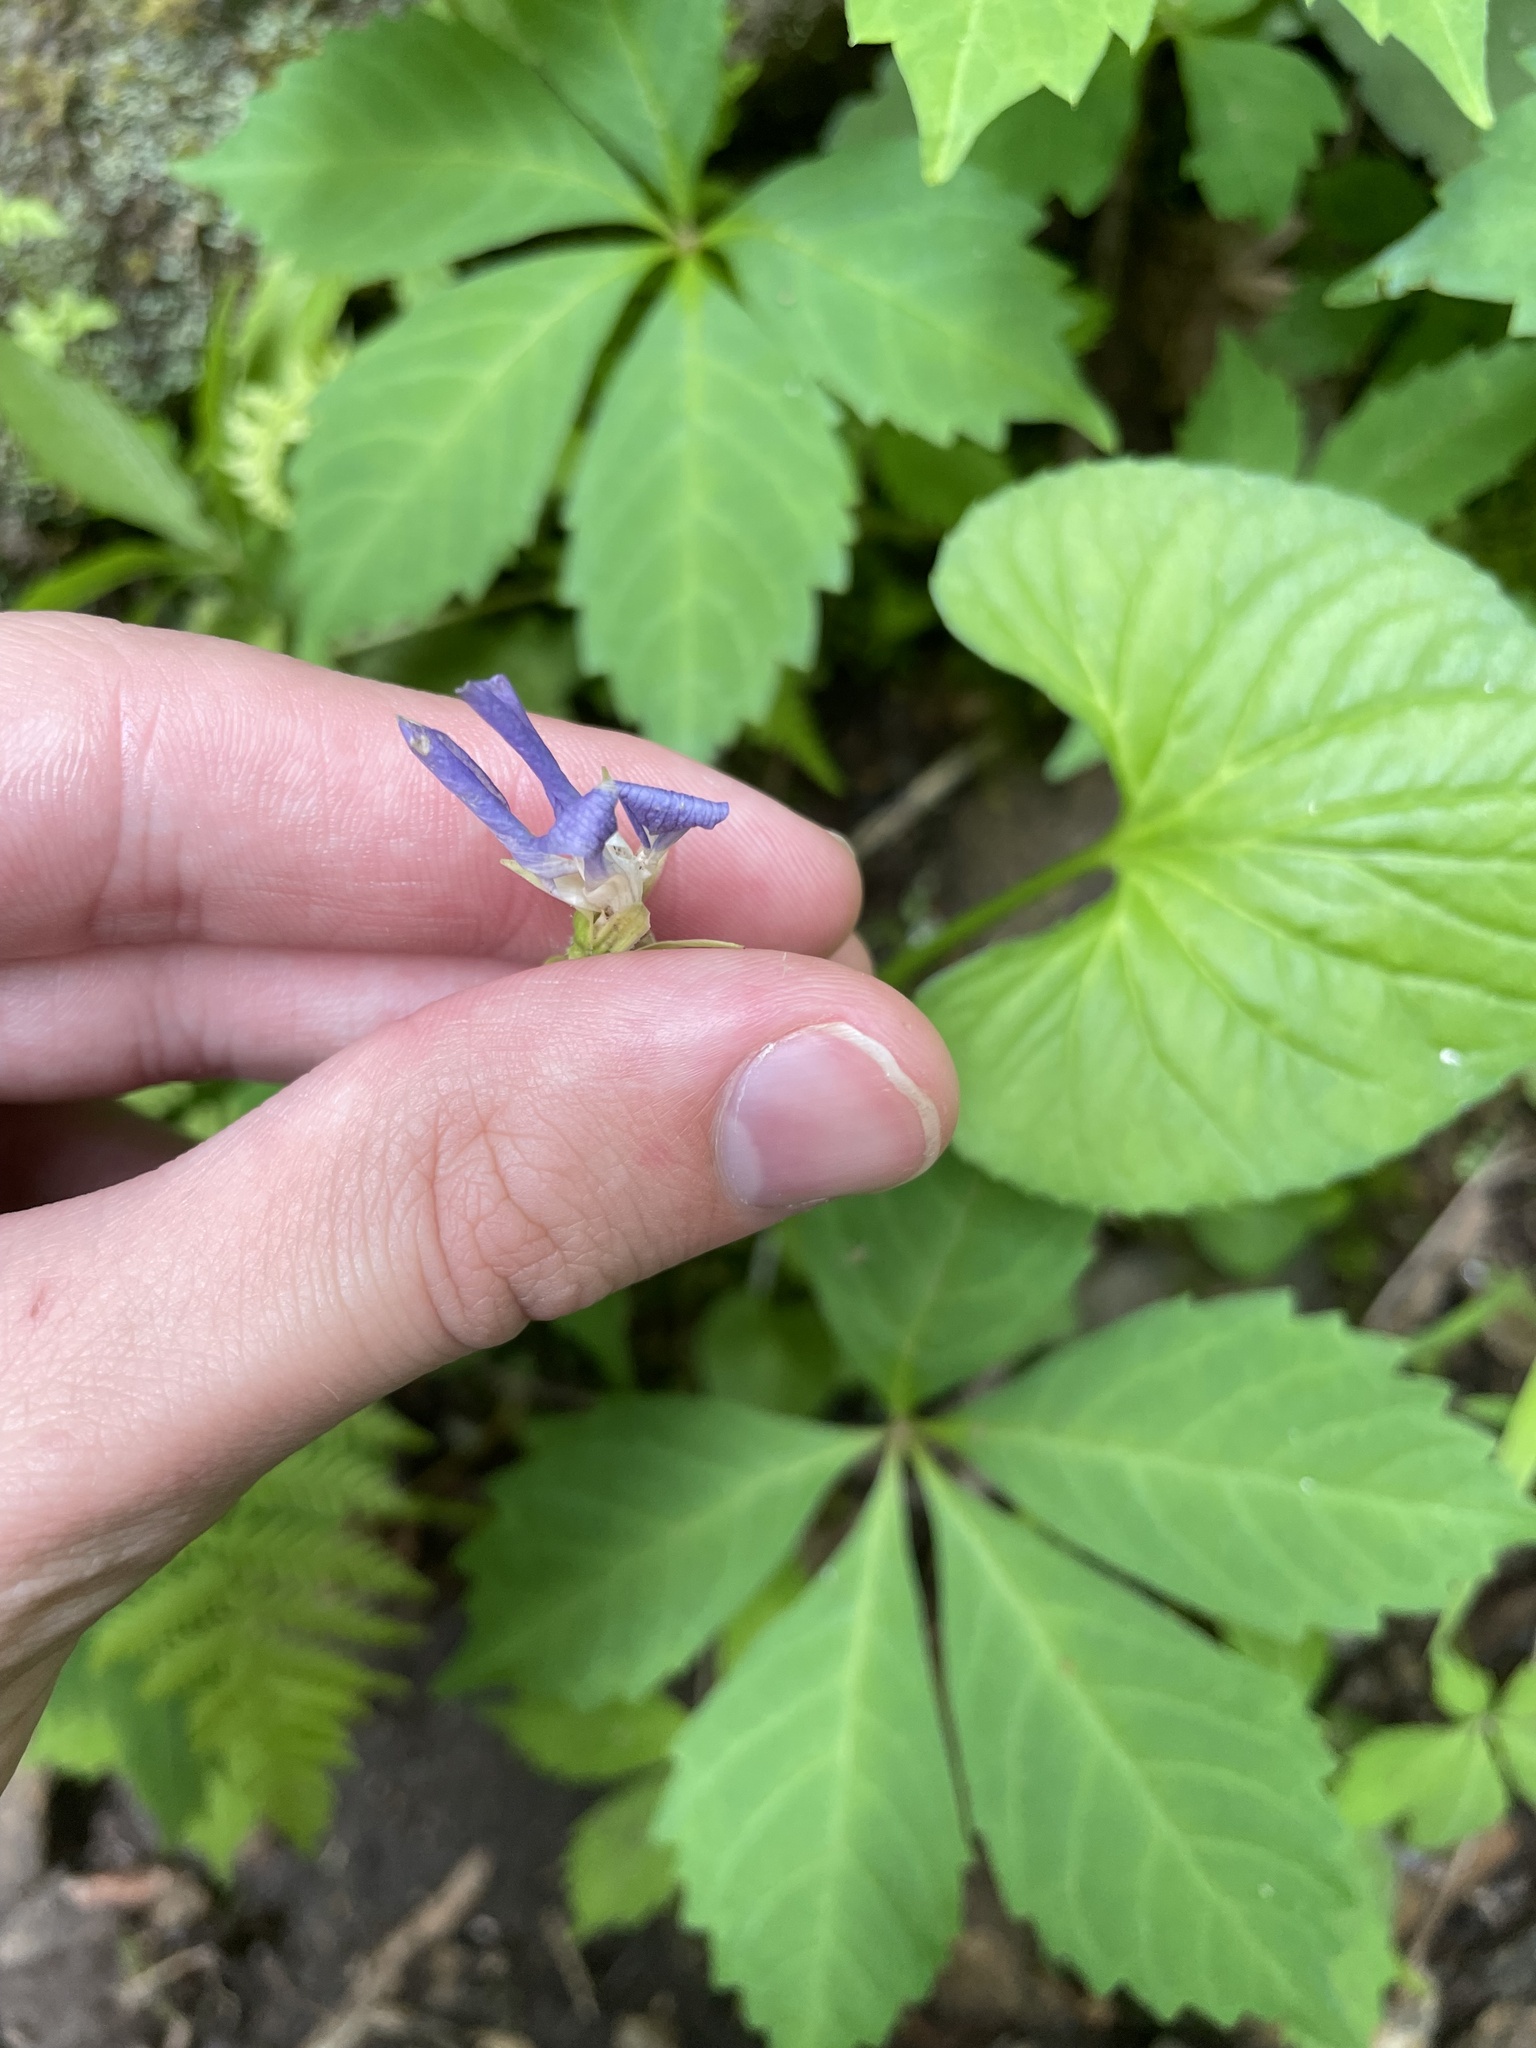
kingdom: Plantae
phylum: Tracheophyta
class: Magnoliopsida
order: Malpighiales
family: Violaceae
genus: Viola
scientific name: Viola cucullata
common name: Marsh blue violet
